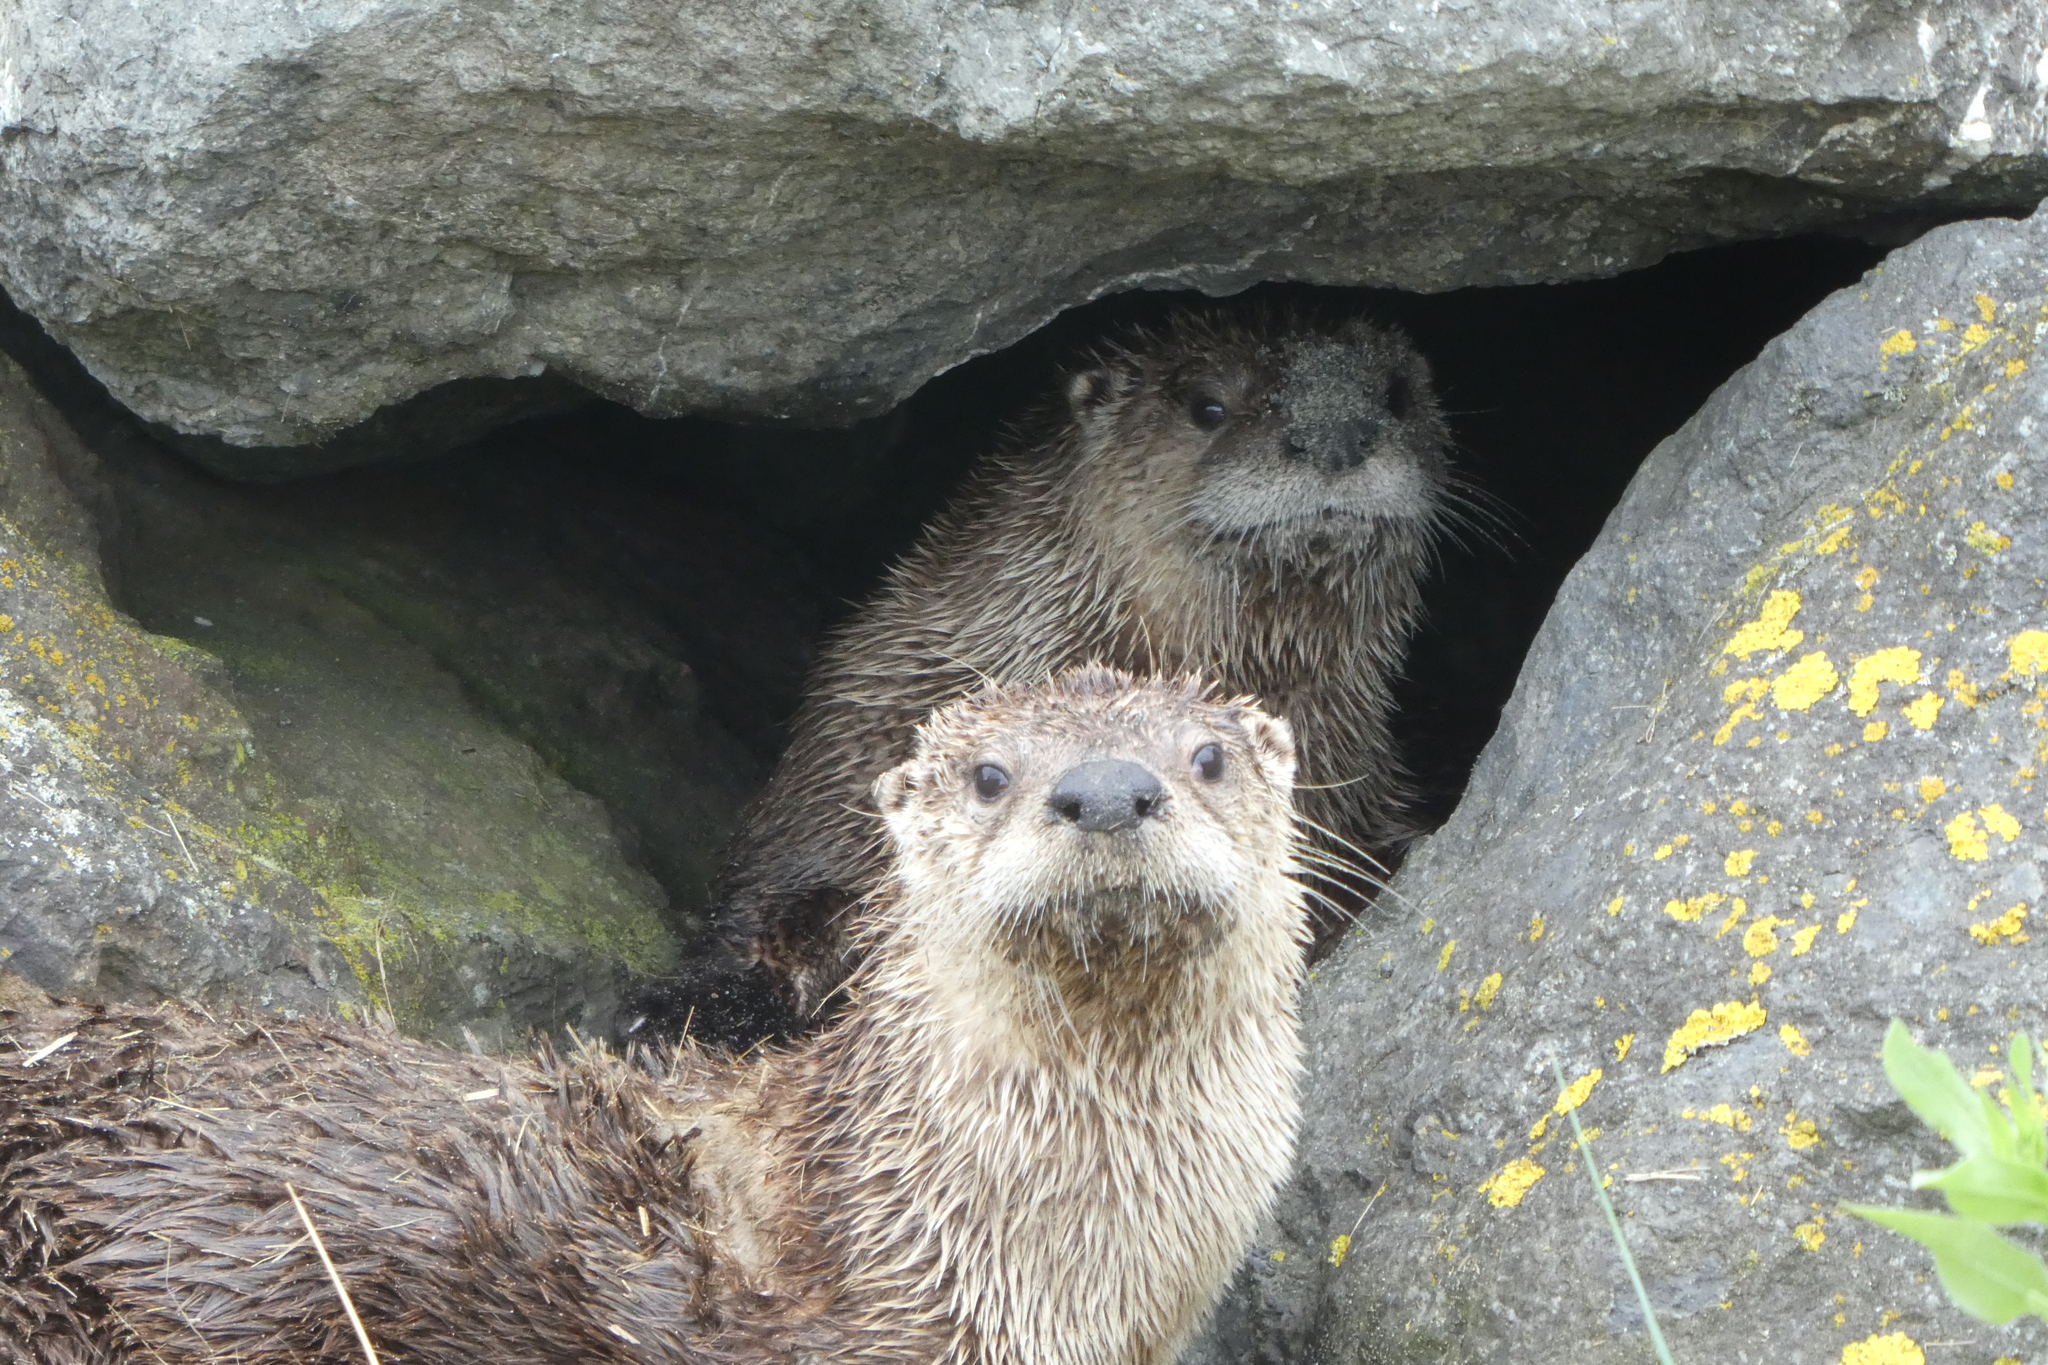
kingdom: Animalia
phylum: Chordata
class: Mammalia
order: Carnivora
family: Mustelidae
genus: Lontra
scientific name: Lontra canadensis
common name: North american river otter
